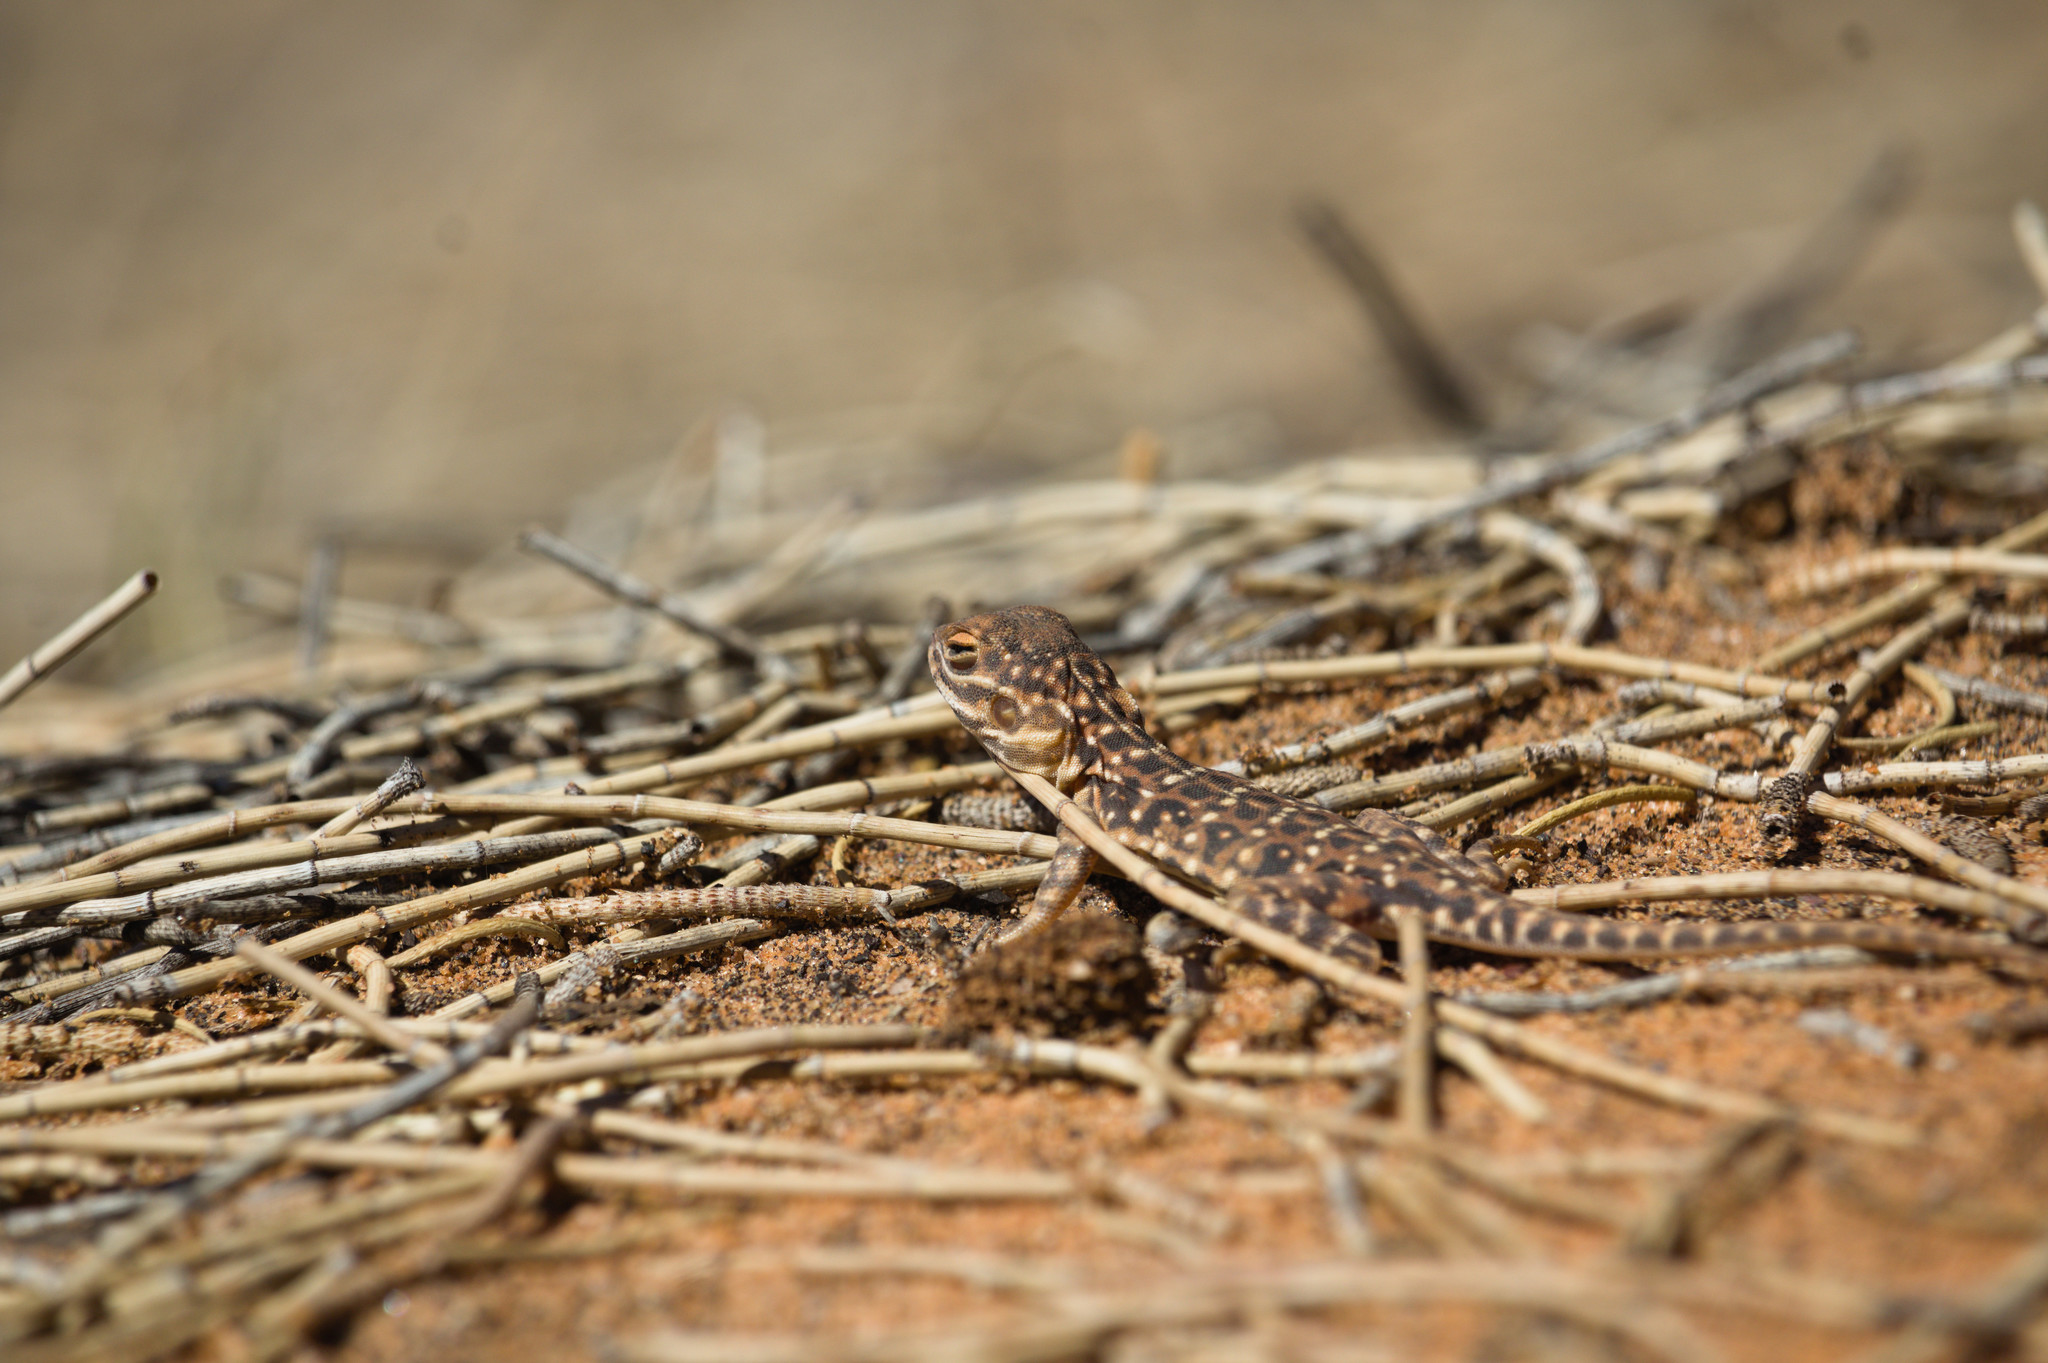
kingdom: Animalia
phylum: Chordata
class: Squamata
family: Agamidae
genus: Ctenophorus
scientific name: Ctenophorus salinarum
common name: Saltpan ground-dragon
